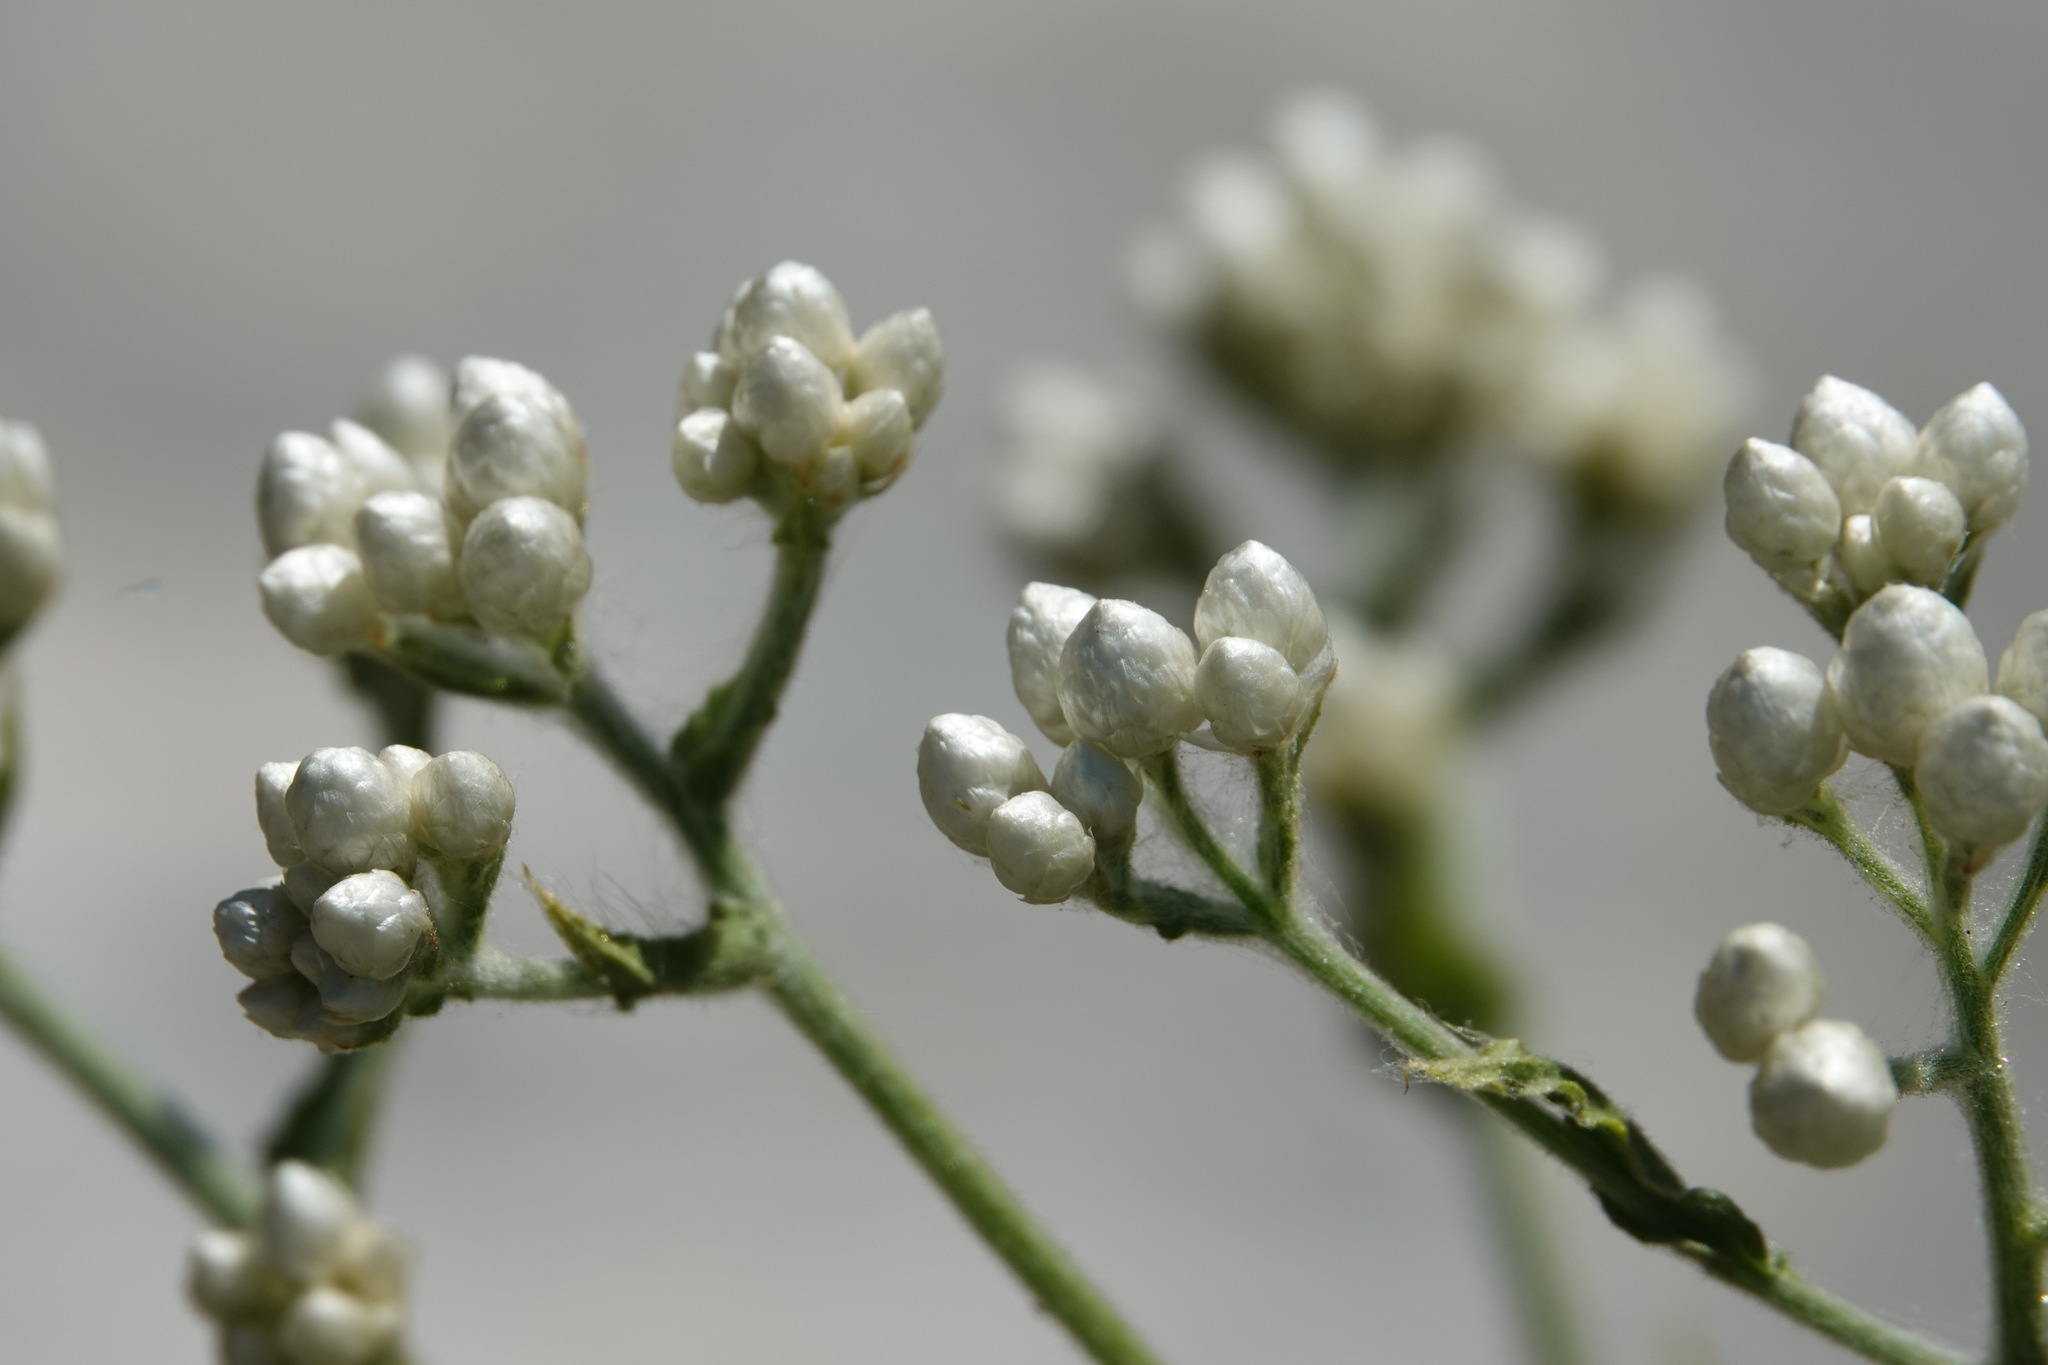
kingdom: Plantae
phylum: Tracheophyta
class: Magnoliopsida
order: Asterales
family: Asteraceae
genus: Pseudognaphalium
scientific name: Pseudognaphalium californicum
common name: California rabbit-tobacco
